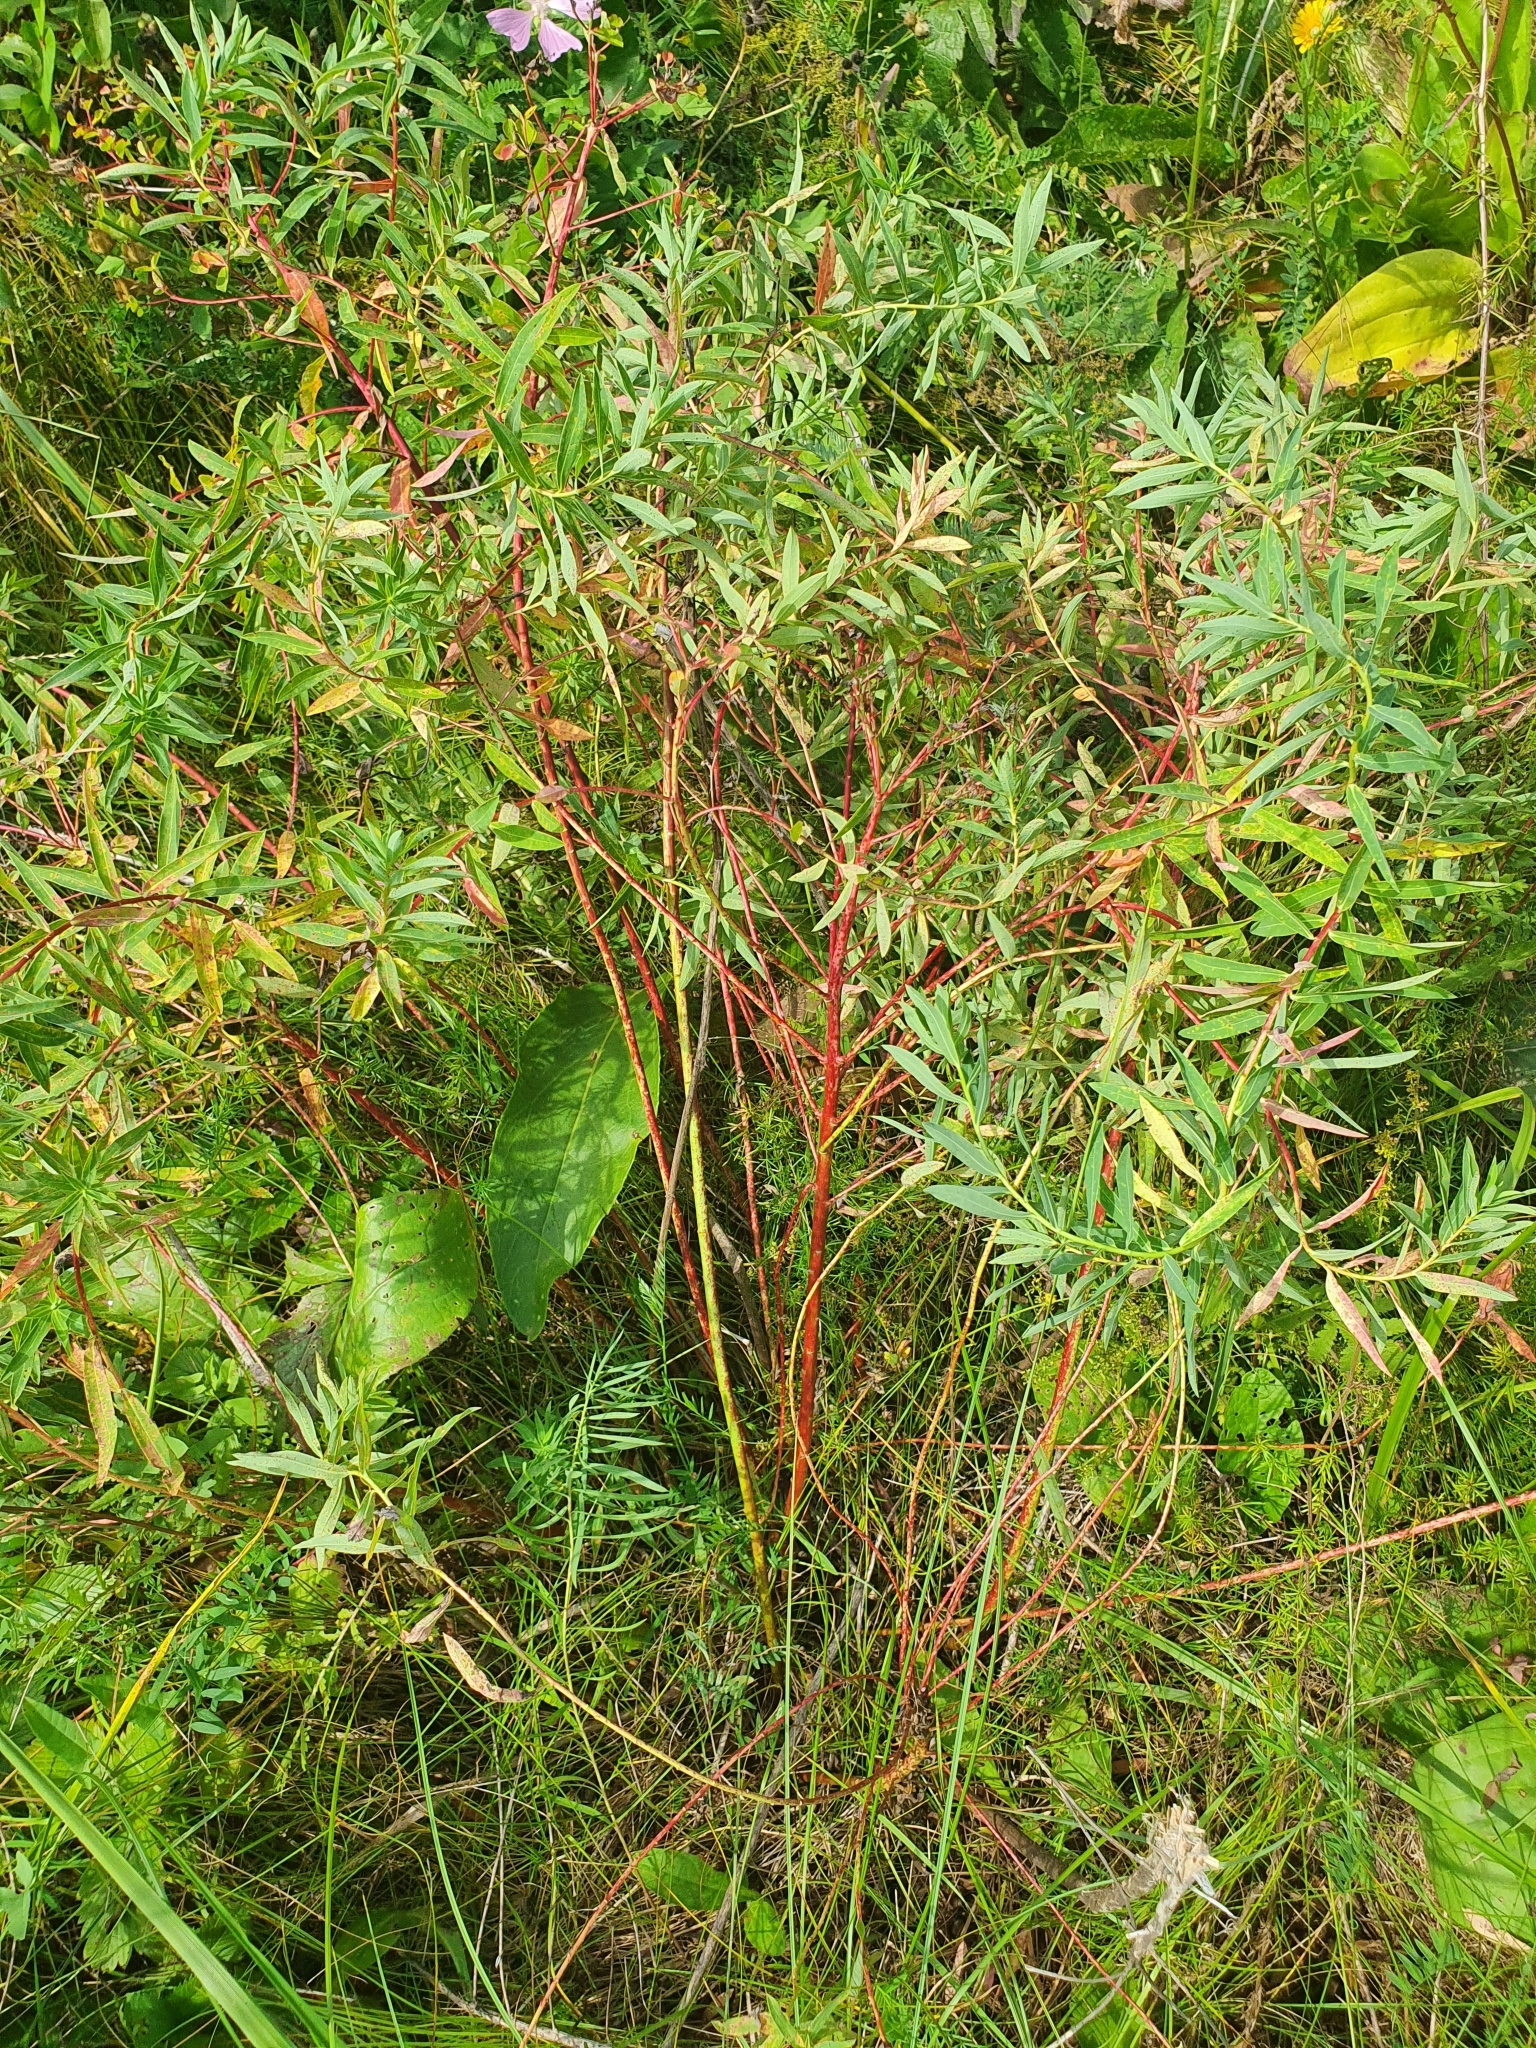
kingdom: Plantae
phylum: Tracheophyta
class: Magnoliopsida
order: Malpighiales
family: Euphorbiaceae
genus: Euphorbia
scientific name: Euphorbia palustris
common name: Marsh spurge
